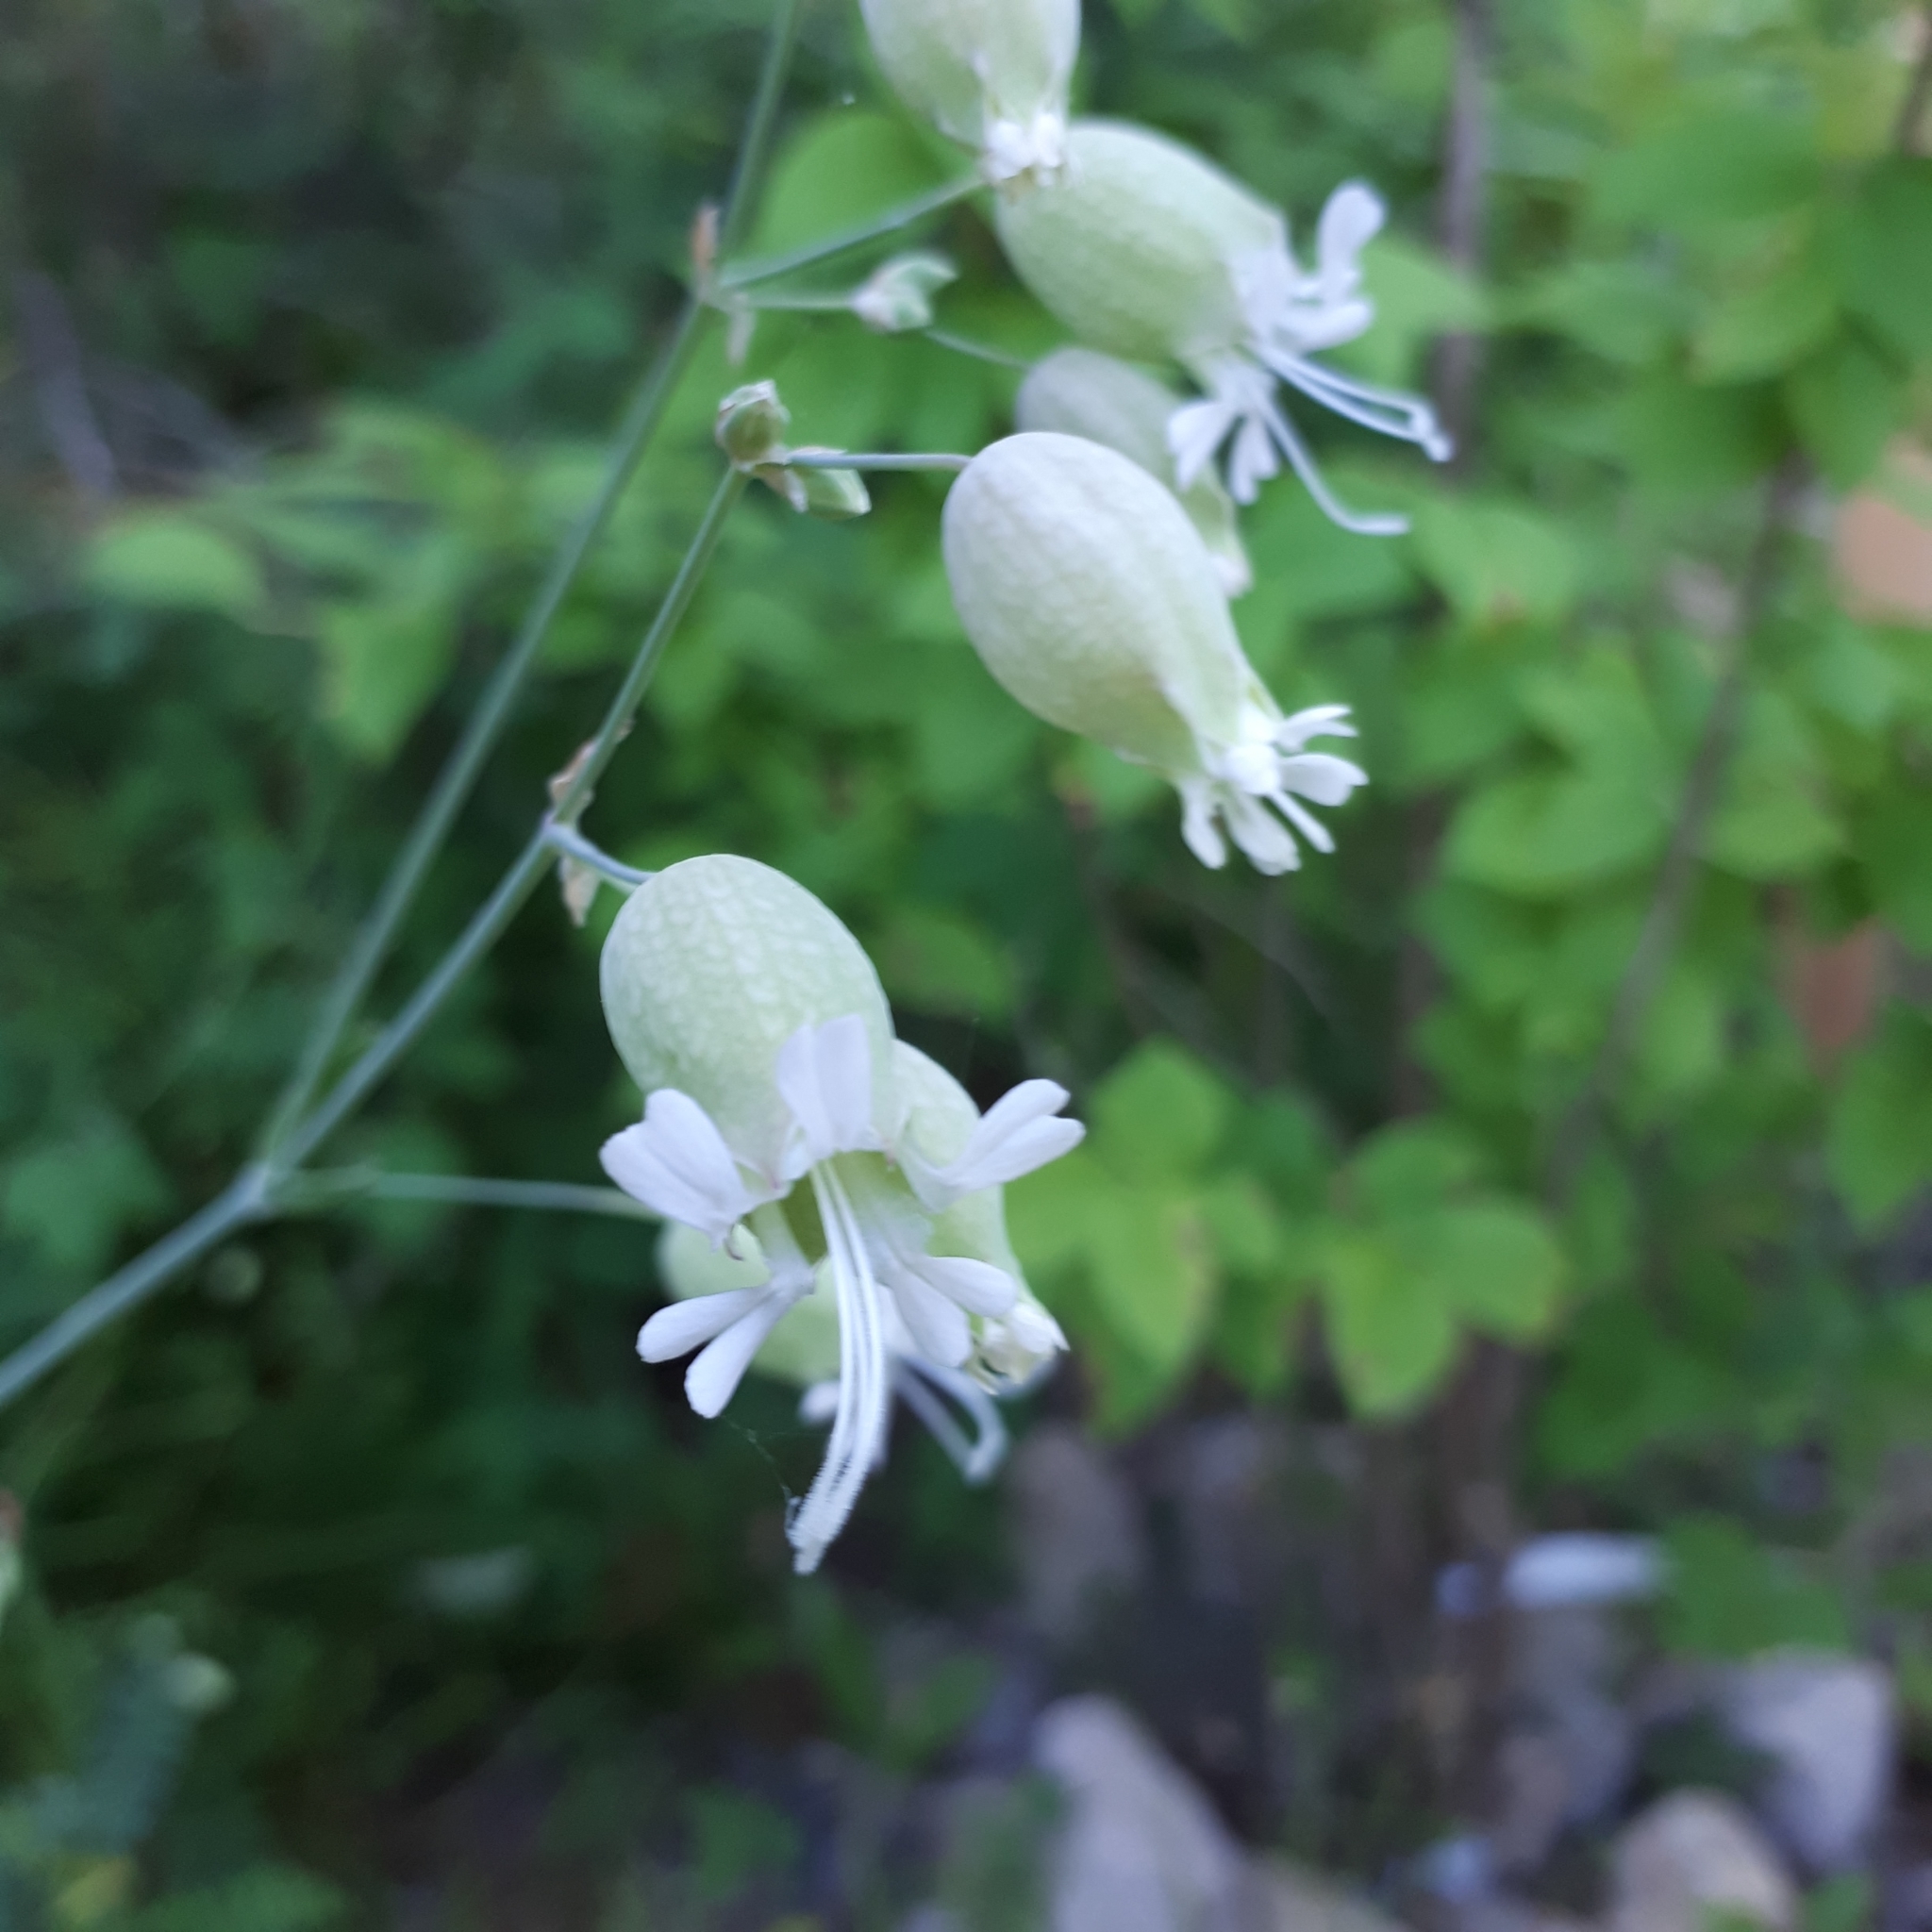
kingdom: Plantae
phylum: Tracheophyta
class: Magnoliopsida
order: Caryophyllales
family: Caryophyllaceae
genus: Silene
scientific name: Silene vulgaris
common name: Bladder campion
